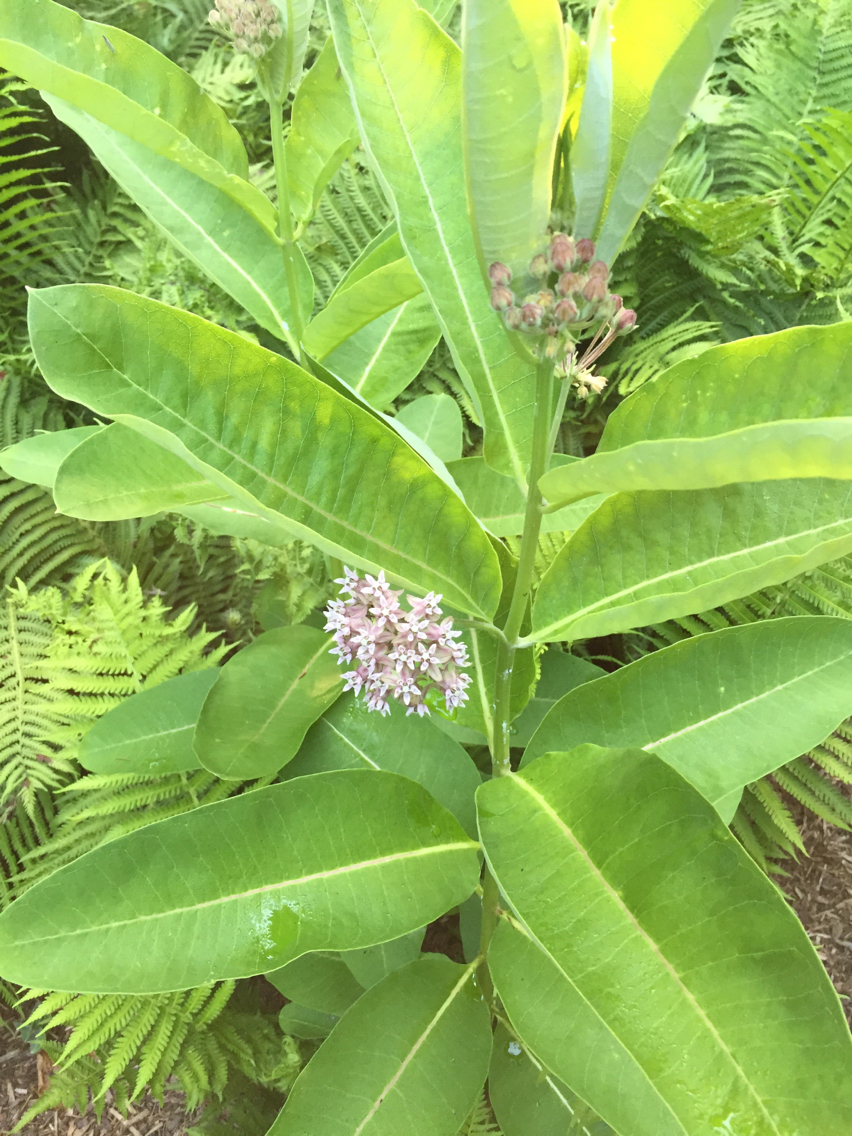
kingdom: Plantae
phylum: Tracheophyta
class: Magnoliopsida
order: Gentianales
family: Apocynaceae
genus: Asclepias
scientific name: Asclepias syriaca
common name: Common milkweed
